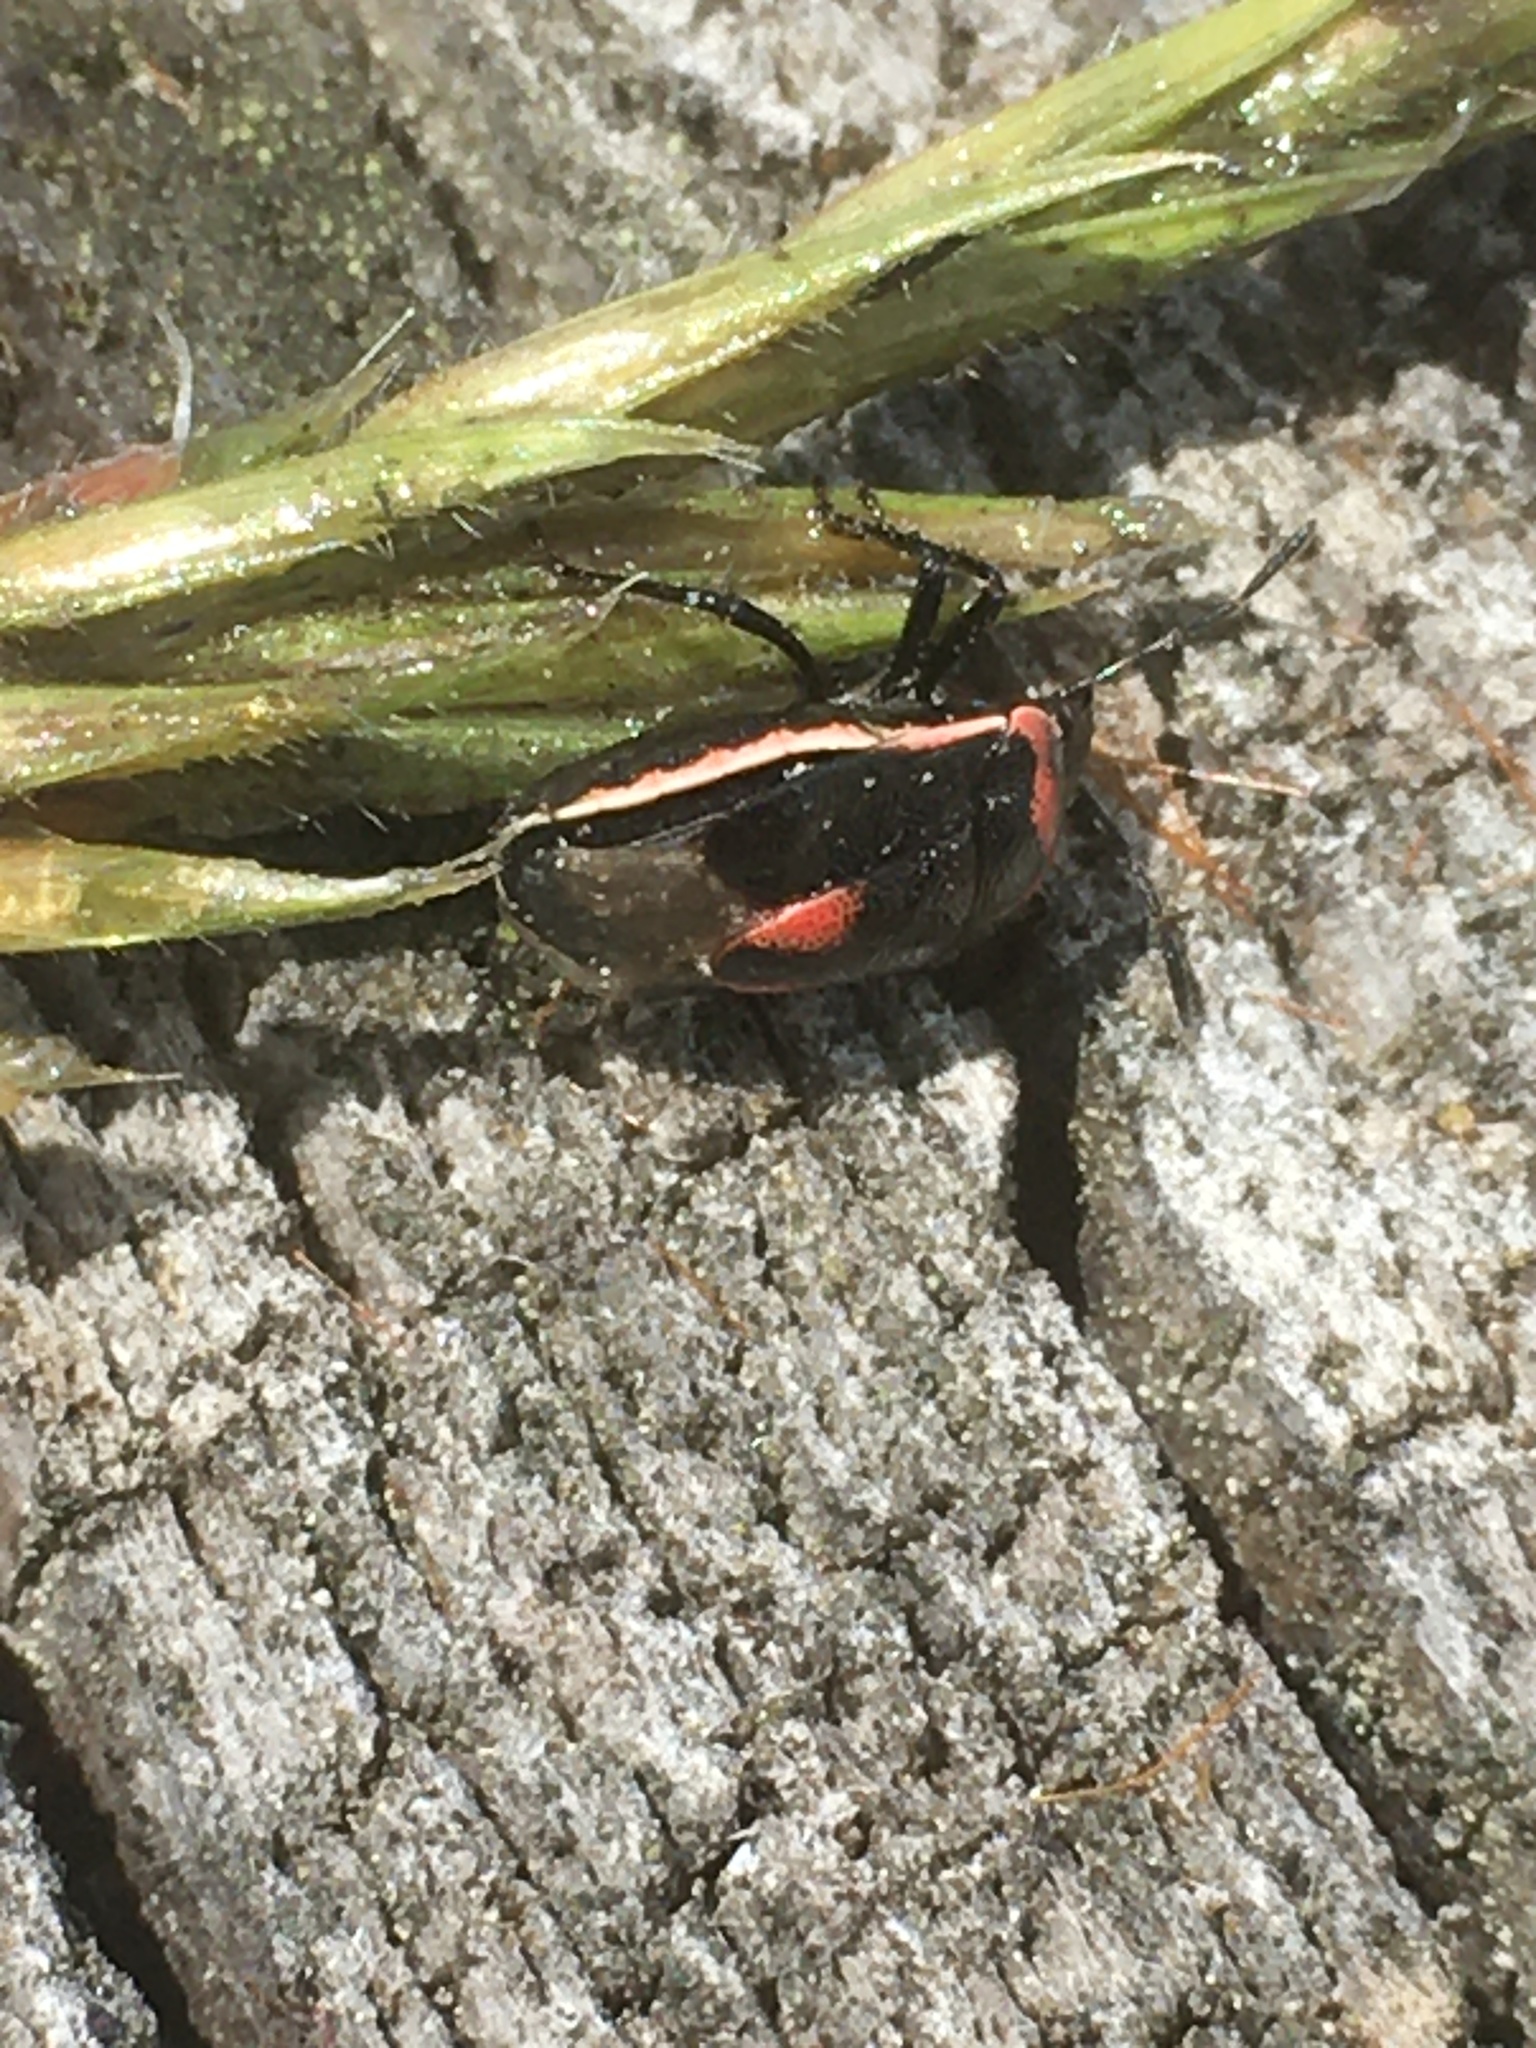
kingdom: Animalia
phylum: Arthropoda
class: Insecta
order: Hemiptera
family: Pentatomidae
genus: Cosmopepla
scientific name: Cosmopepla lintneriana
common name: Twice-stabbed stink bug
